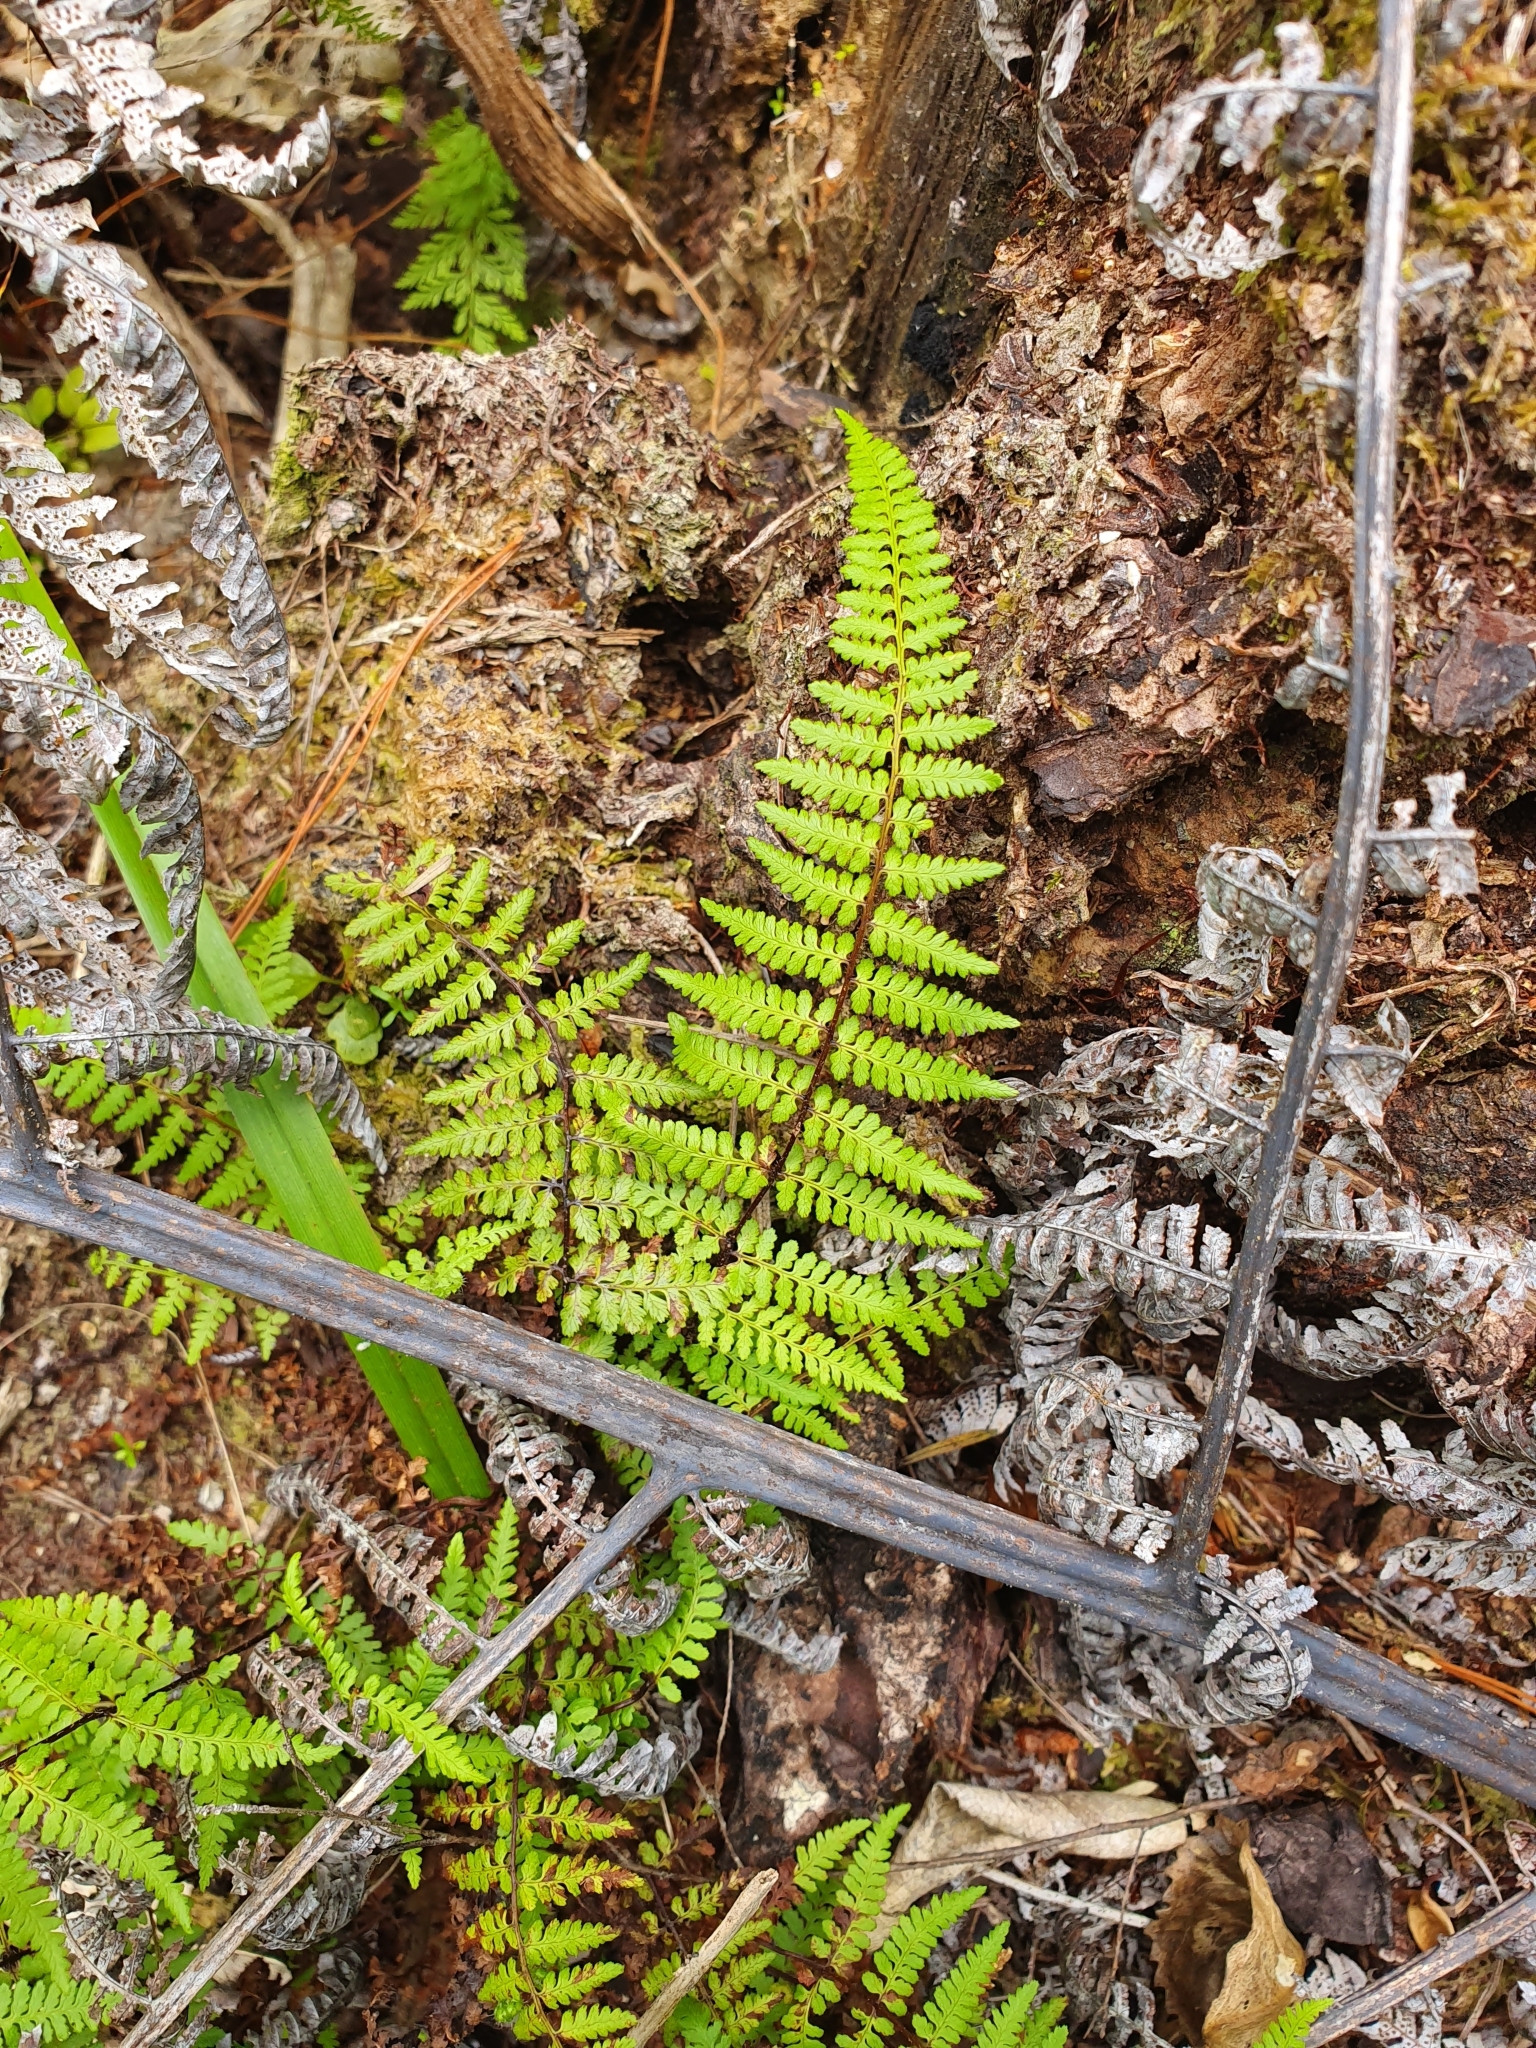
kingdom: Plantae
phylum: Tracheophyta
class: Polypodiopsida
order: Polypodiales
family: Dennstaedtiaceae
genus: Hiya
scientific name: Hiya distans
